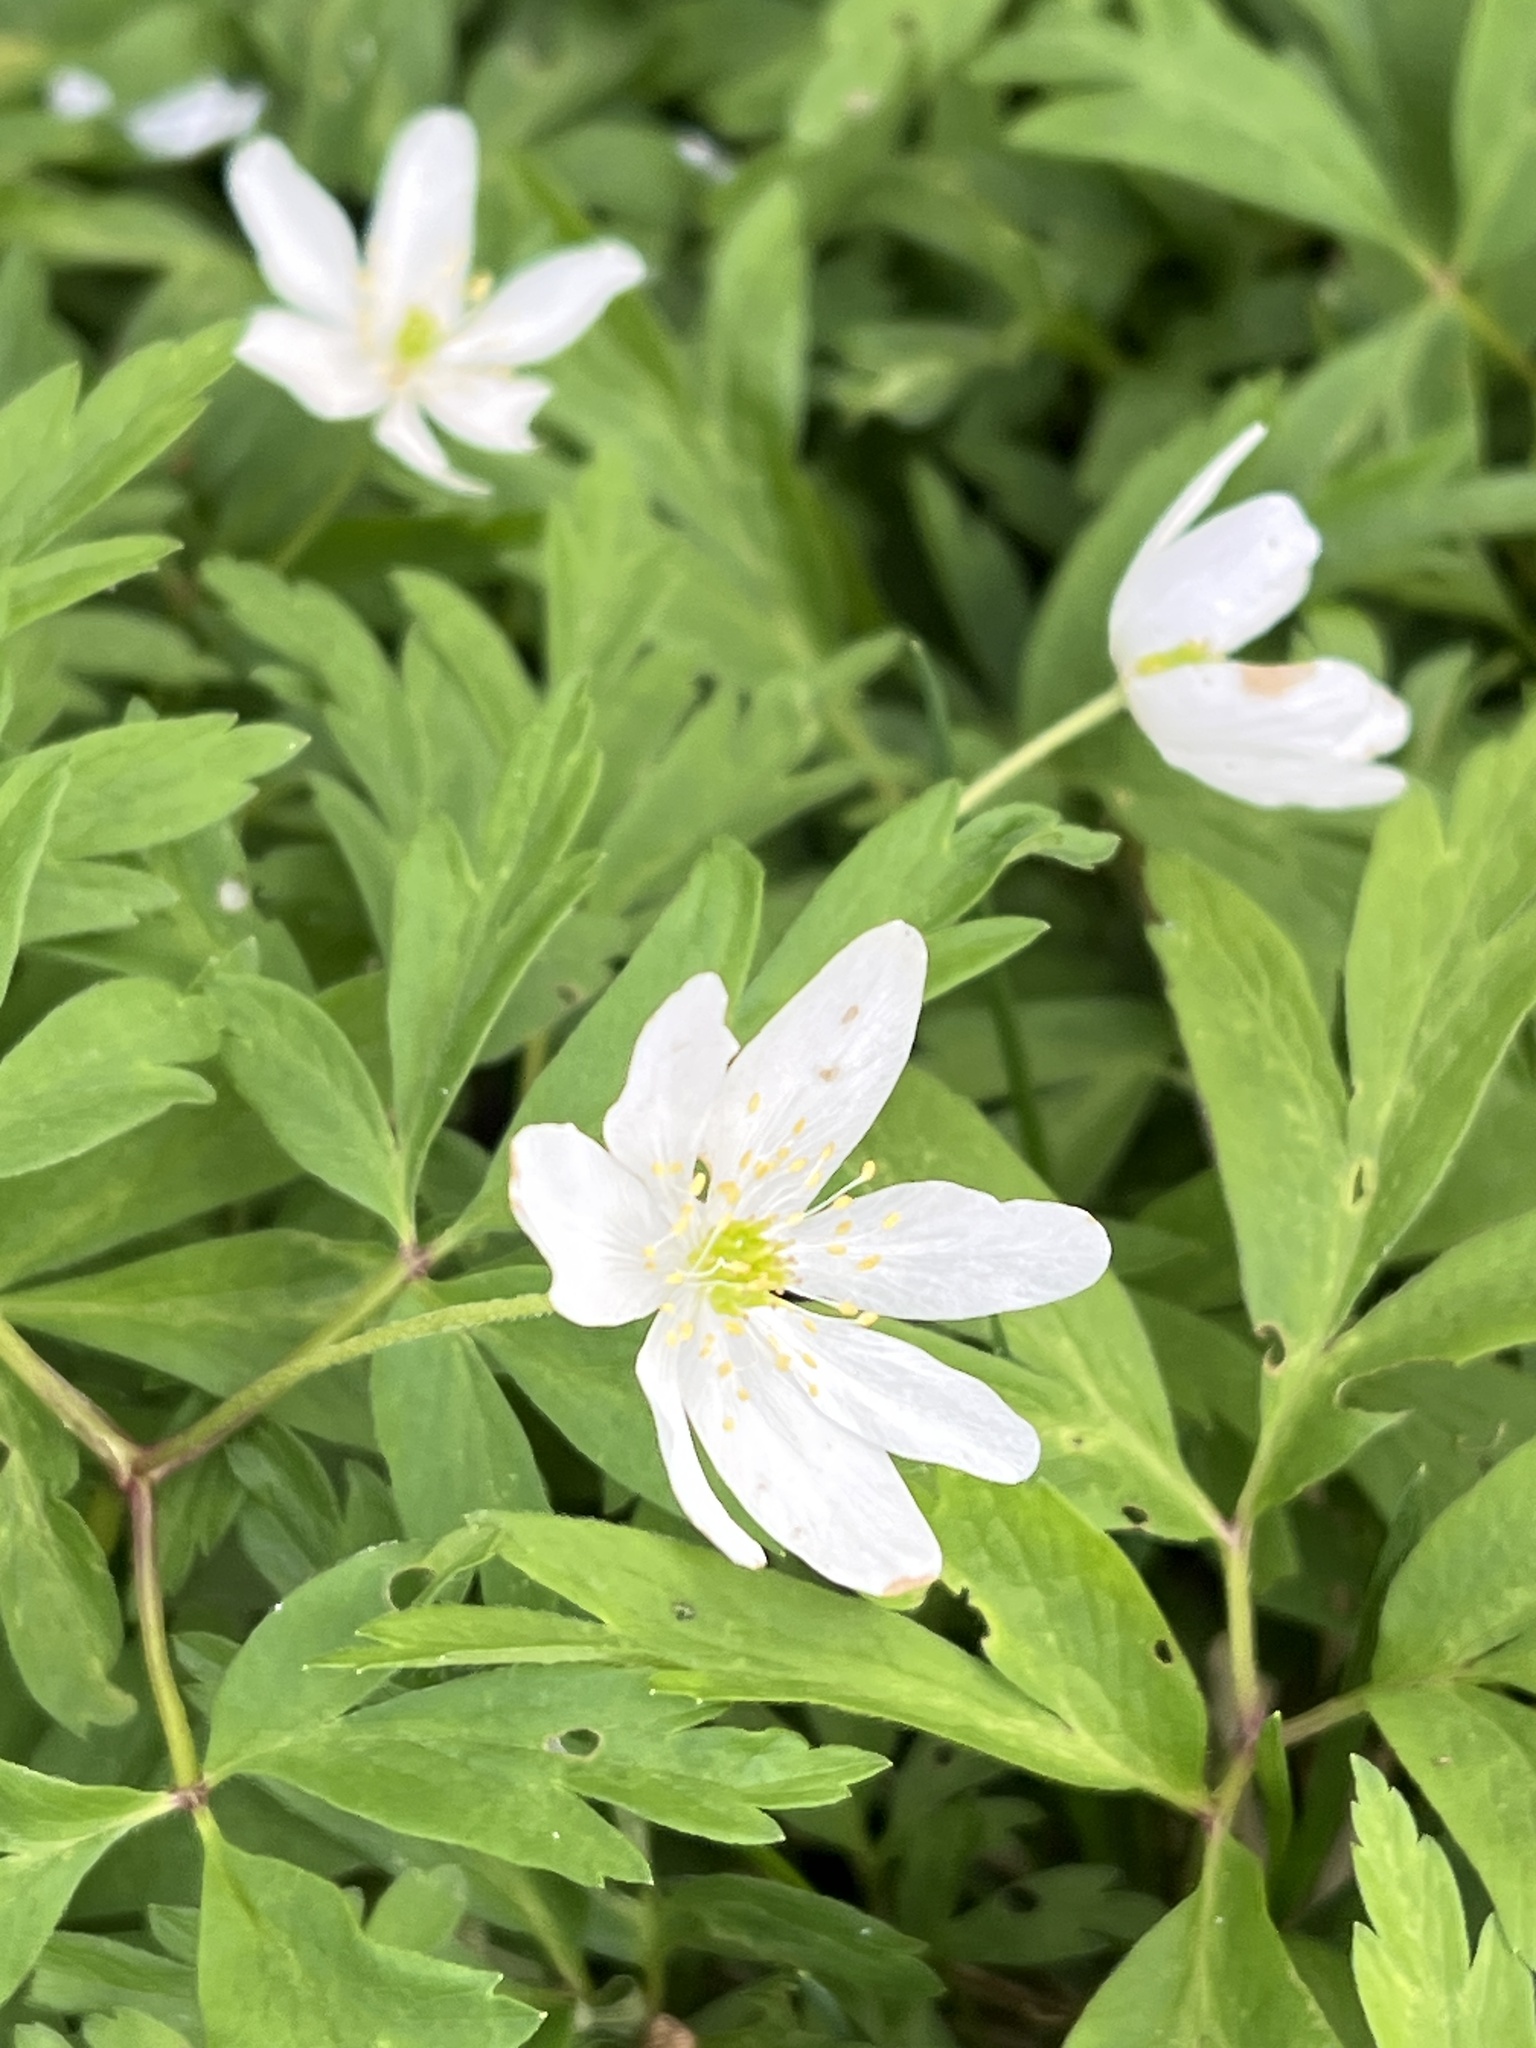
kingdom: Plantae
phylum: Tracheophyta
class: Magnoliopsida
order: Ranunculales
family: Ranunculaceae
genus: Anemone
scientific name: Anemone nemorosa
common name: Wood anemone
